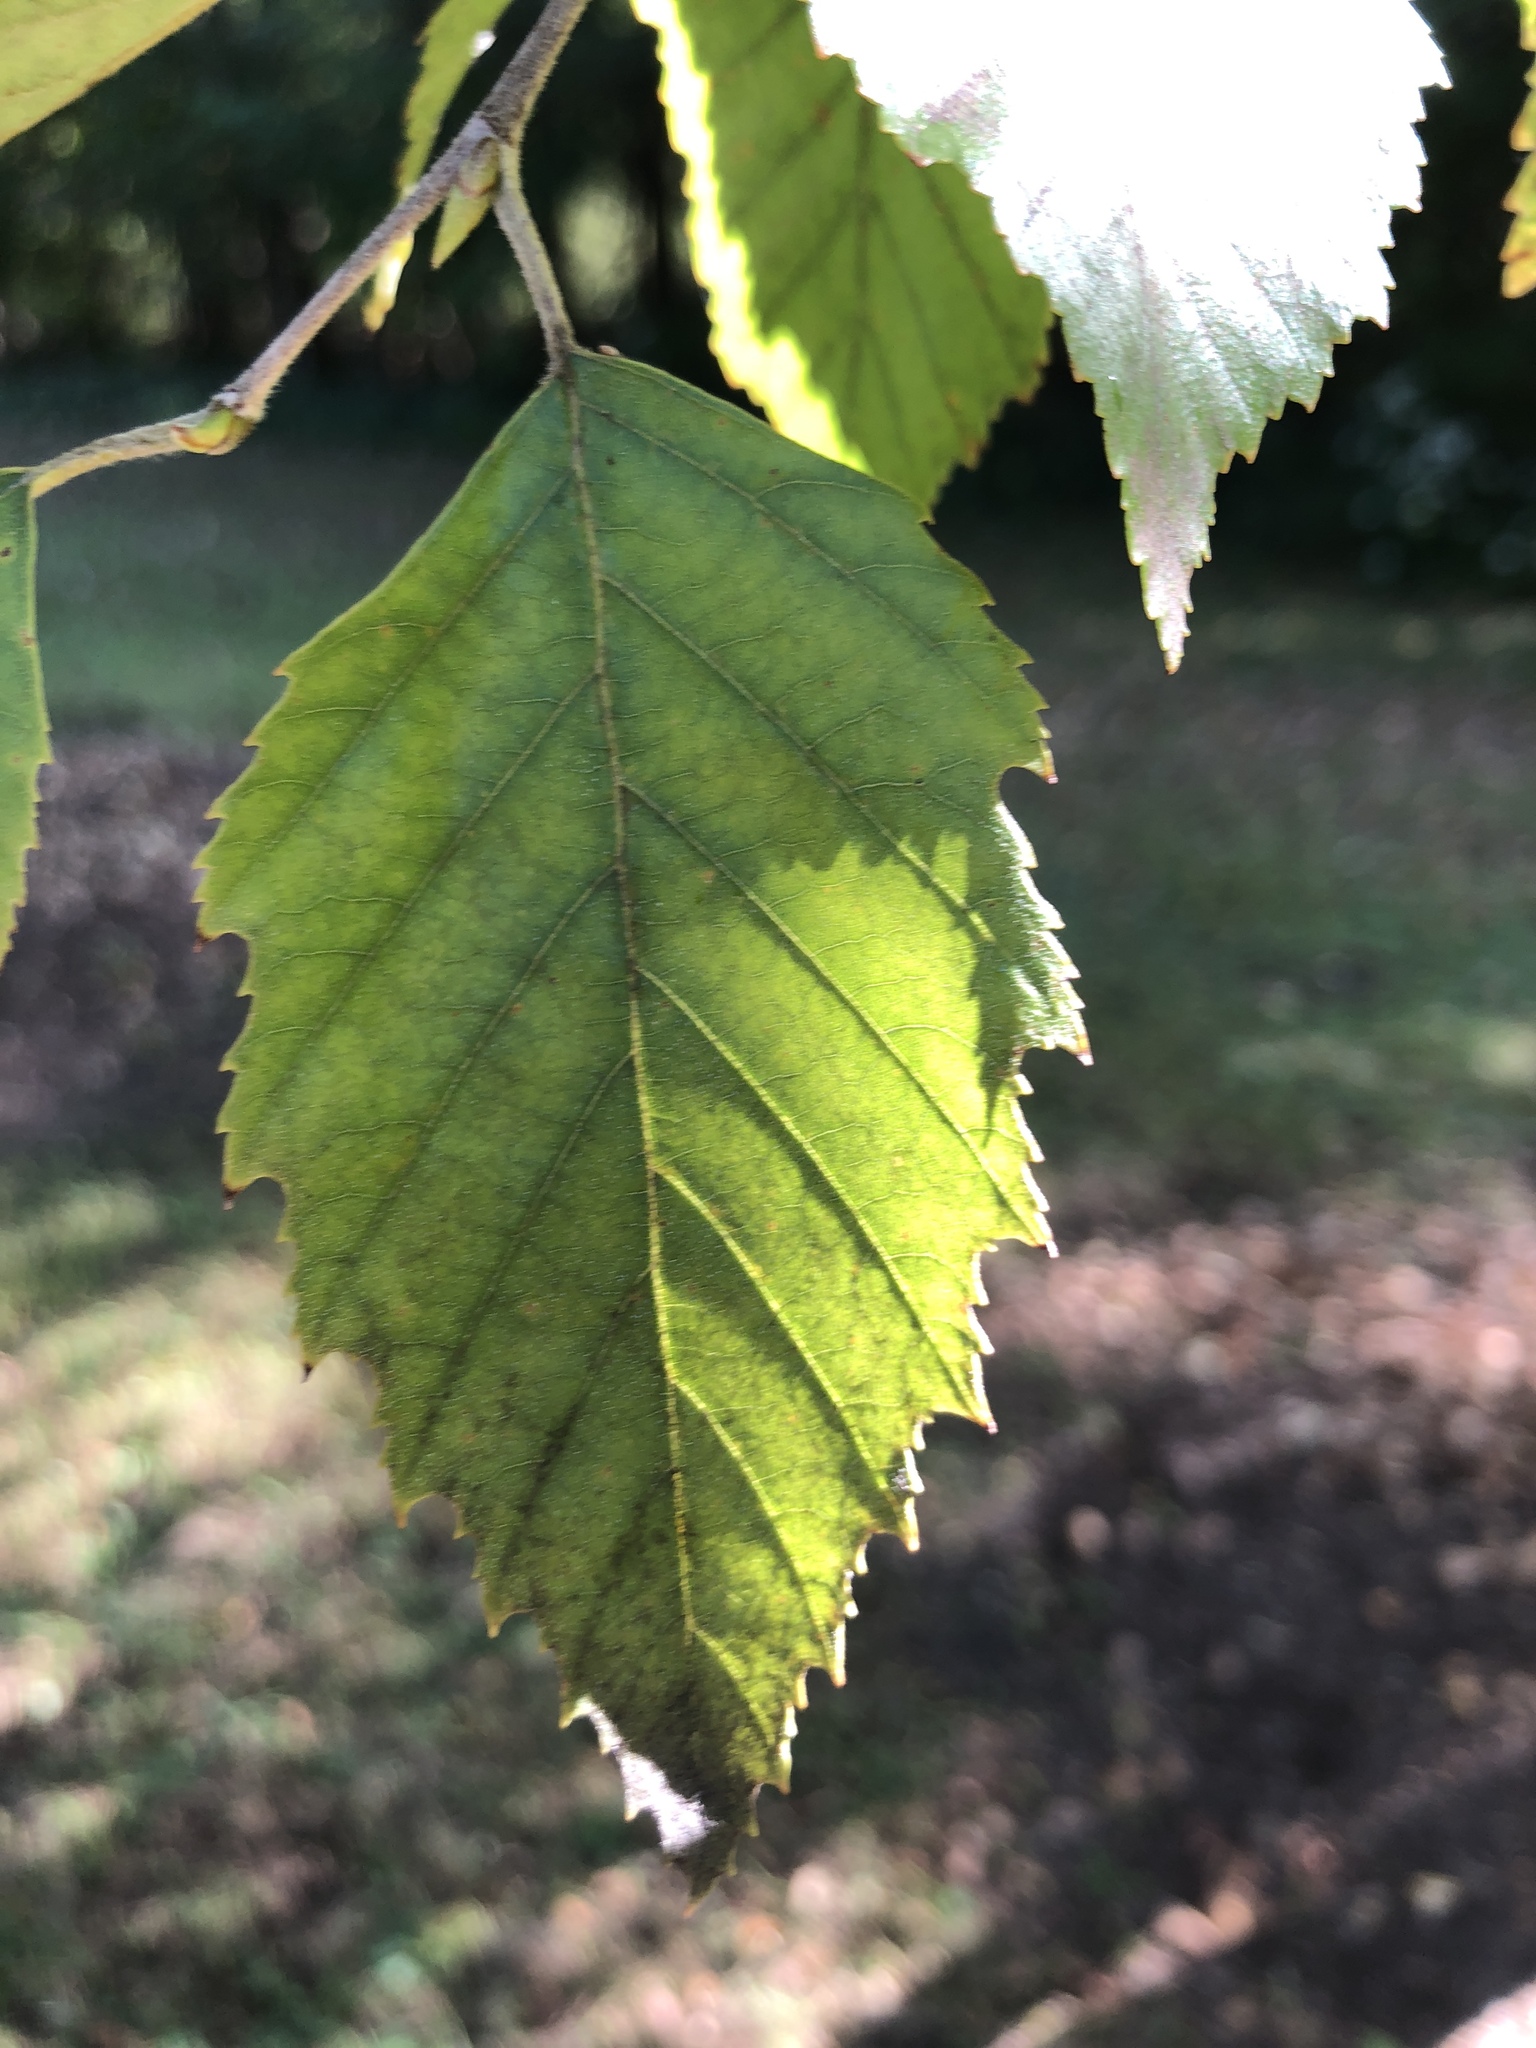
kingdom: Plantae
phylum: Tracheophyta
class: Magnoliopsida
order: Fagales
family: Betulaceae
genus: Betula
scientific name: Betula nigra
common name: Black birch
